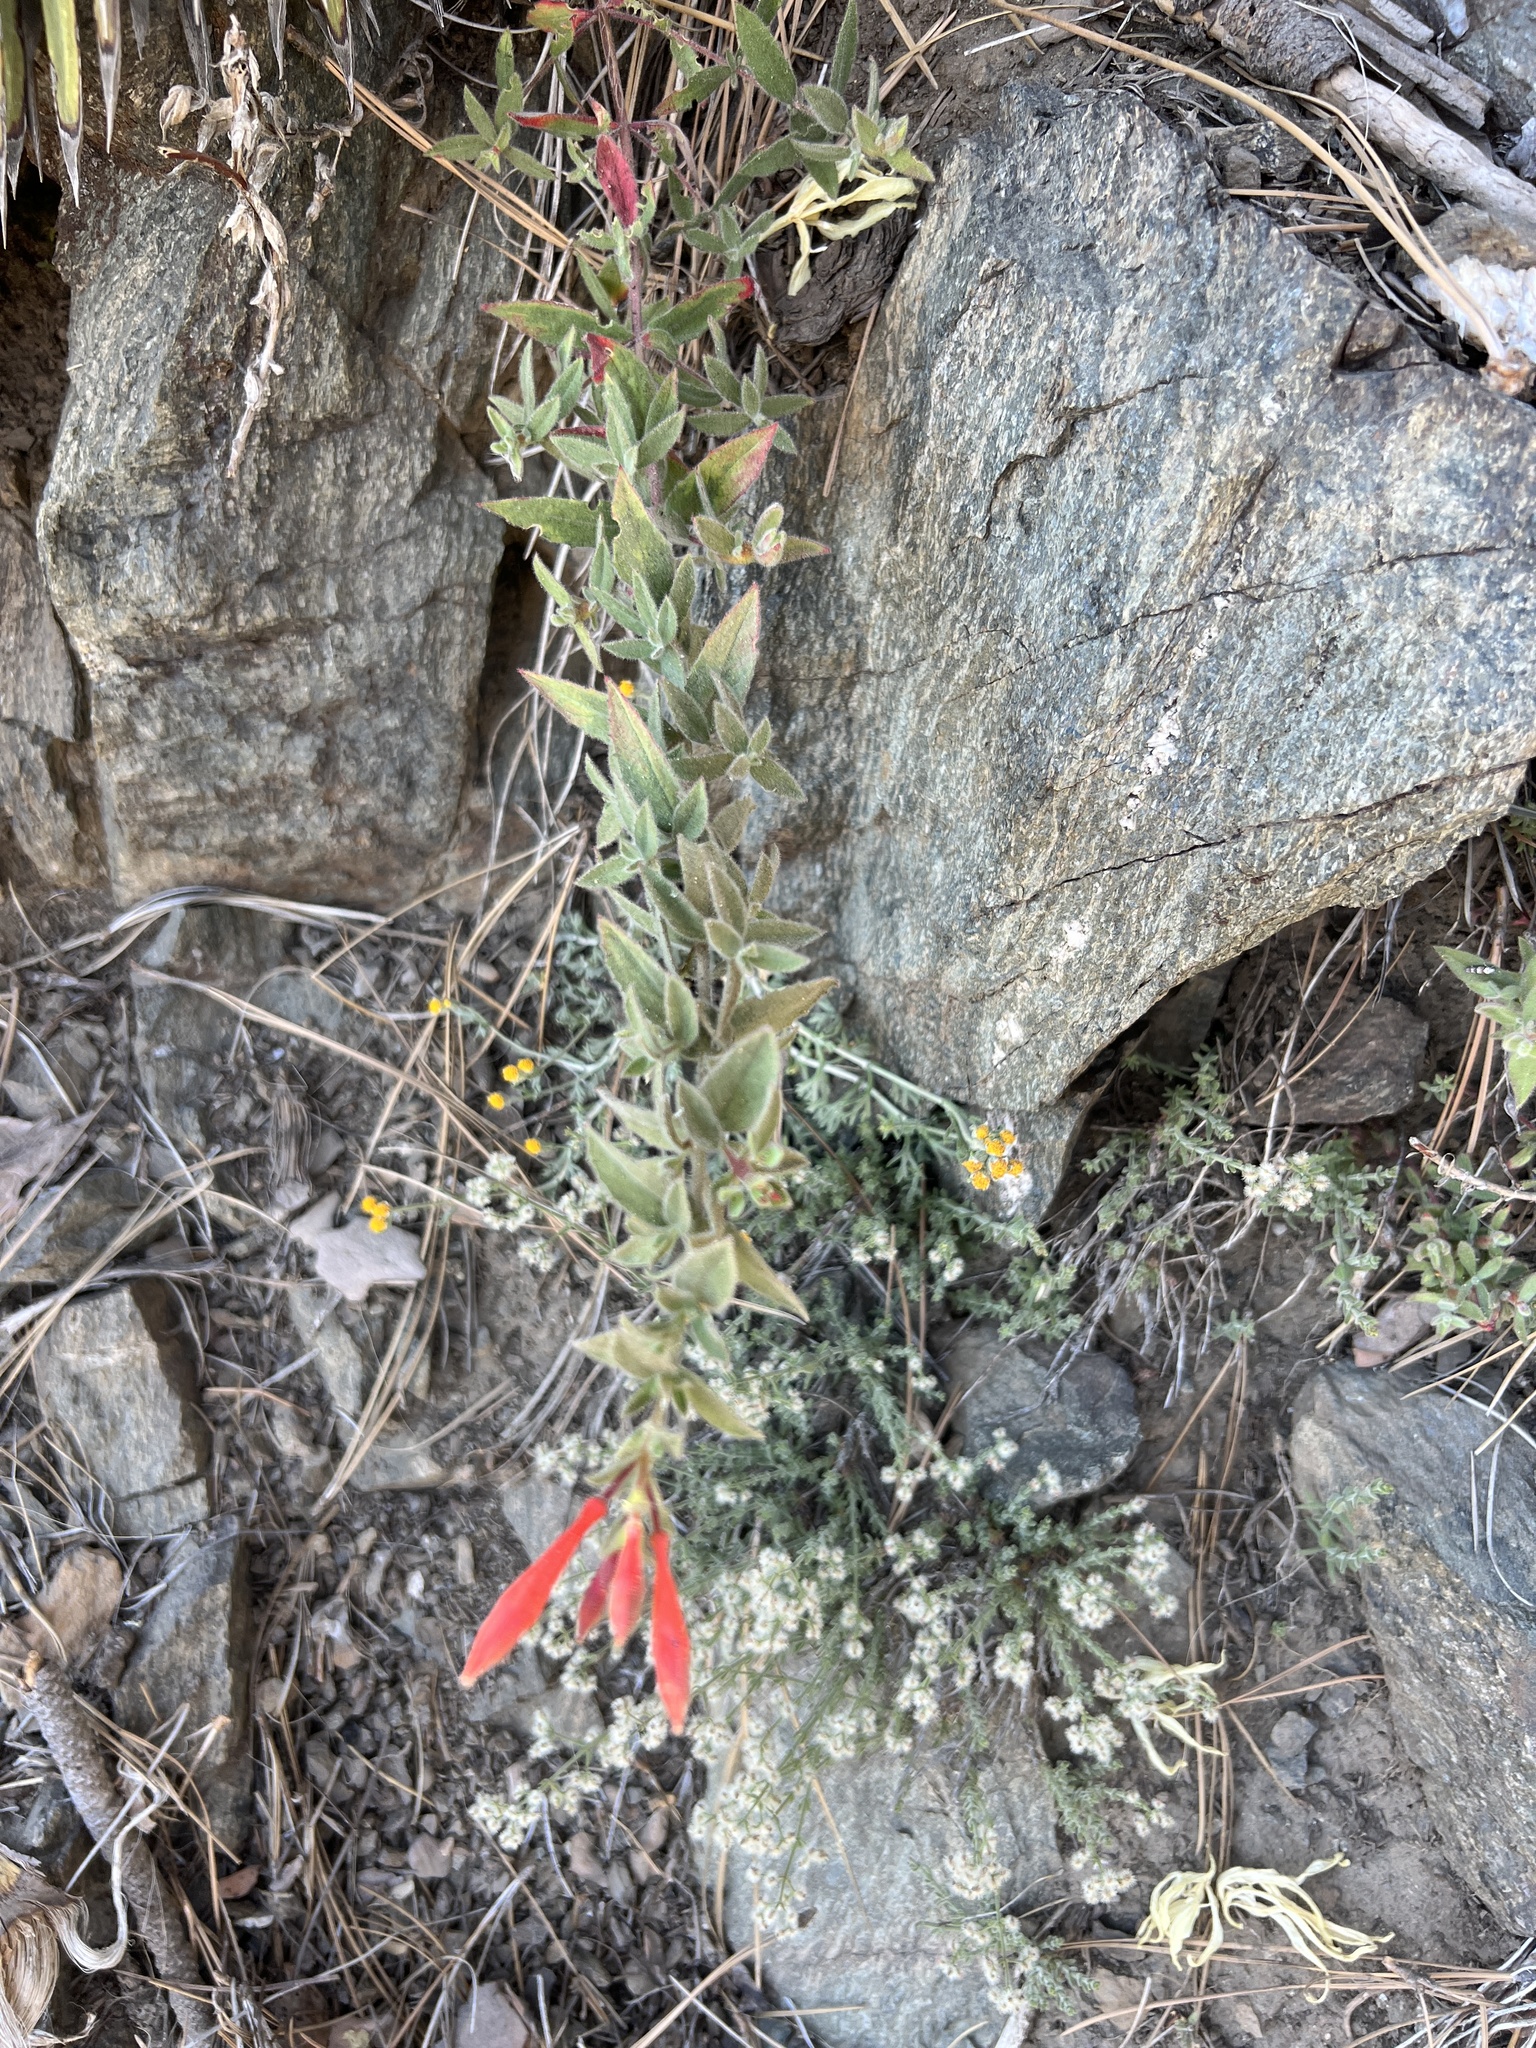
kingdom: Plantae
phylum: Tracheophyta
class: Magnoliopsida
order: Myrtales
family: Onagraceae
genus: Epilobium
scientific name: Epilobium canum
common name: California-fuchsia
